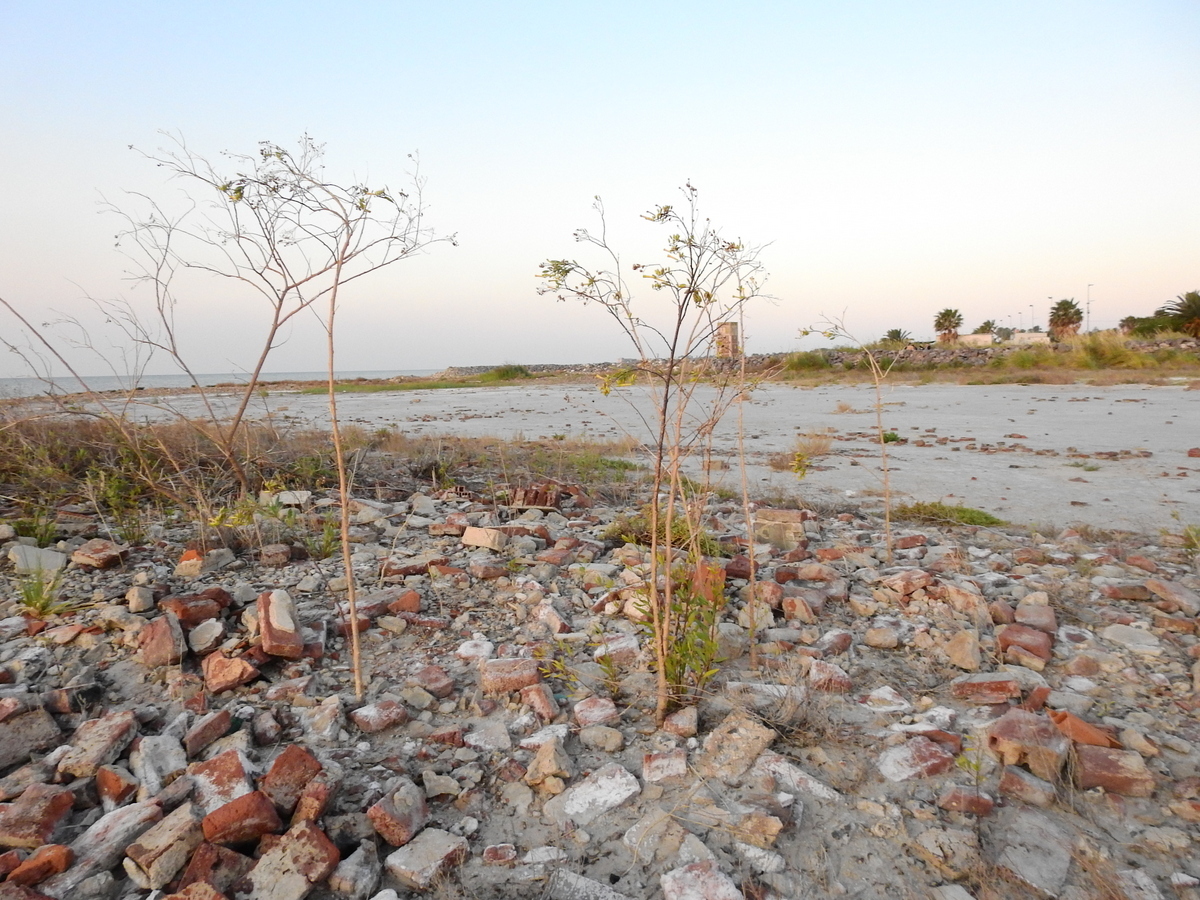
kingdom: Plantae
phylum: Tracheophyta
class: Magnoliopsida
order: Solanales
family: Solanaceae
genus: Nicotiana
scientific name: Nicotiana glauca
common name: Tree tobacco
